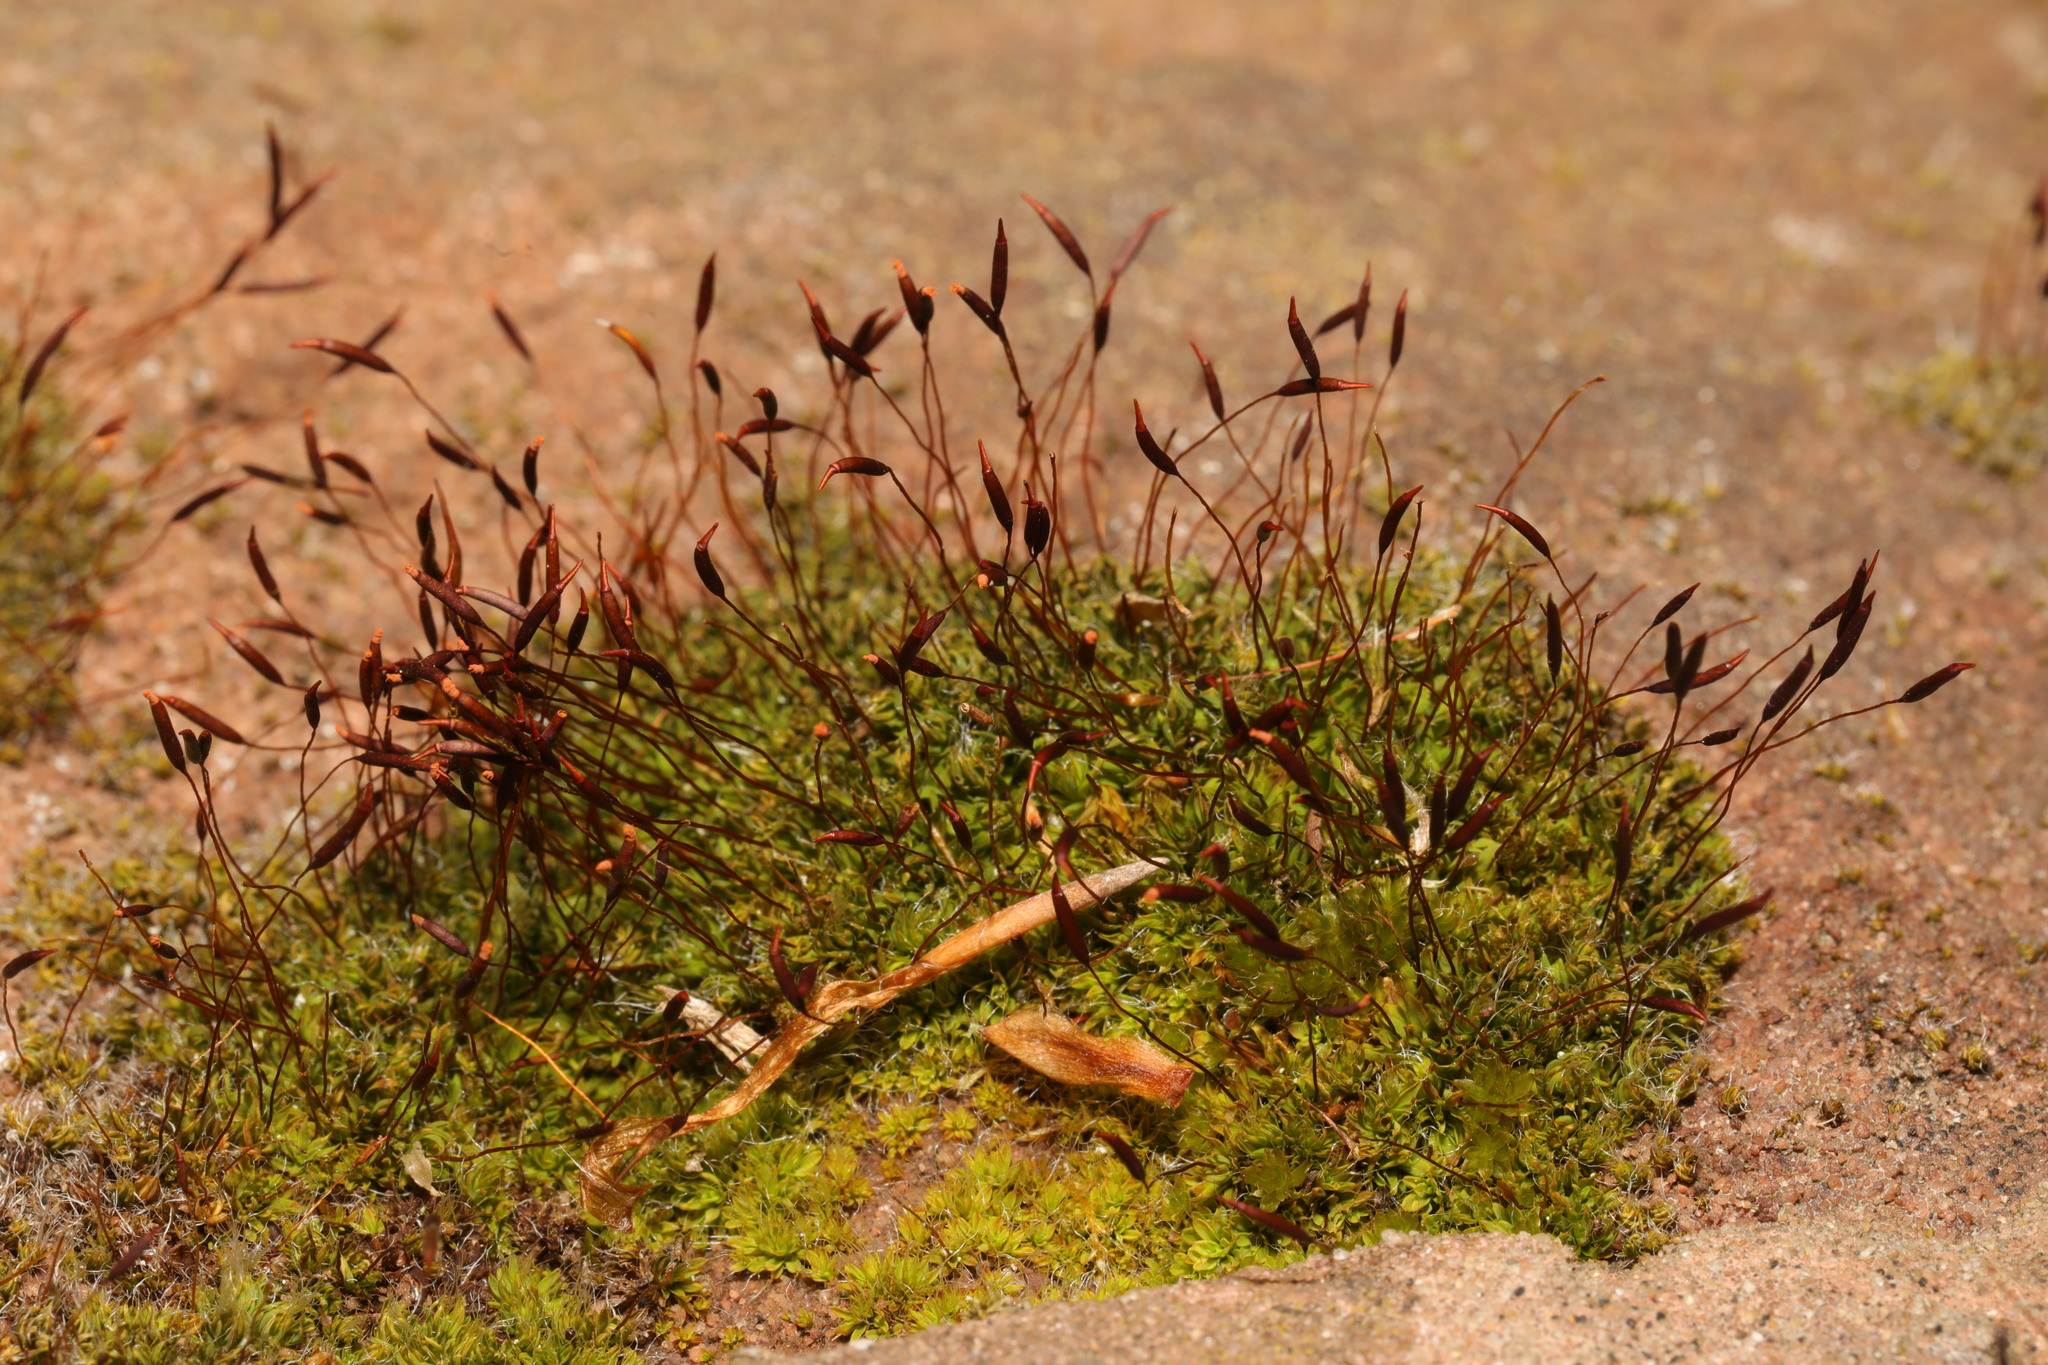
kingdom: Plantae
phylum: Bryophyta
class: Bryopsida
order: Pottiales
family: Pottiaceae
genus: Tortula
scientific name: Tortula muralis
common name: Wall screw-moss
